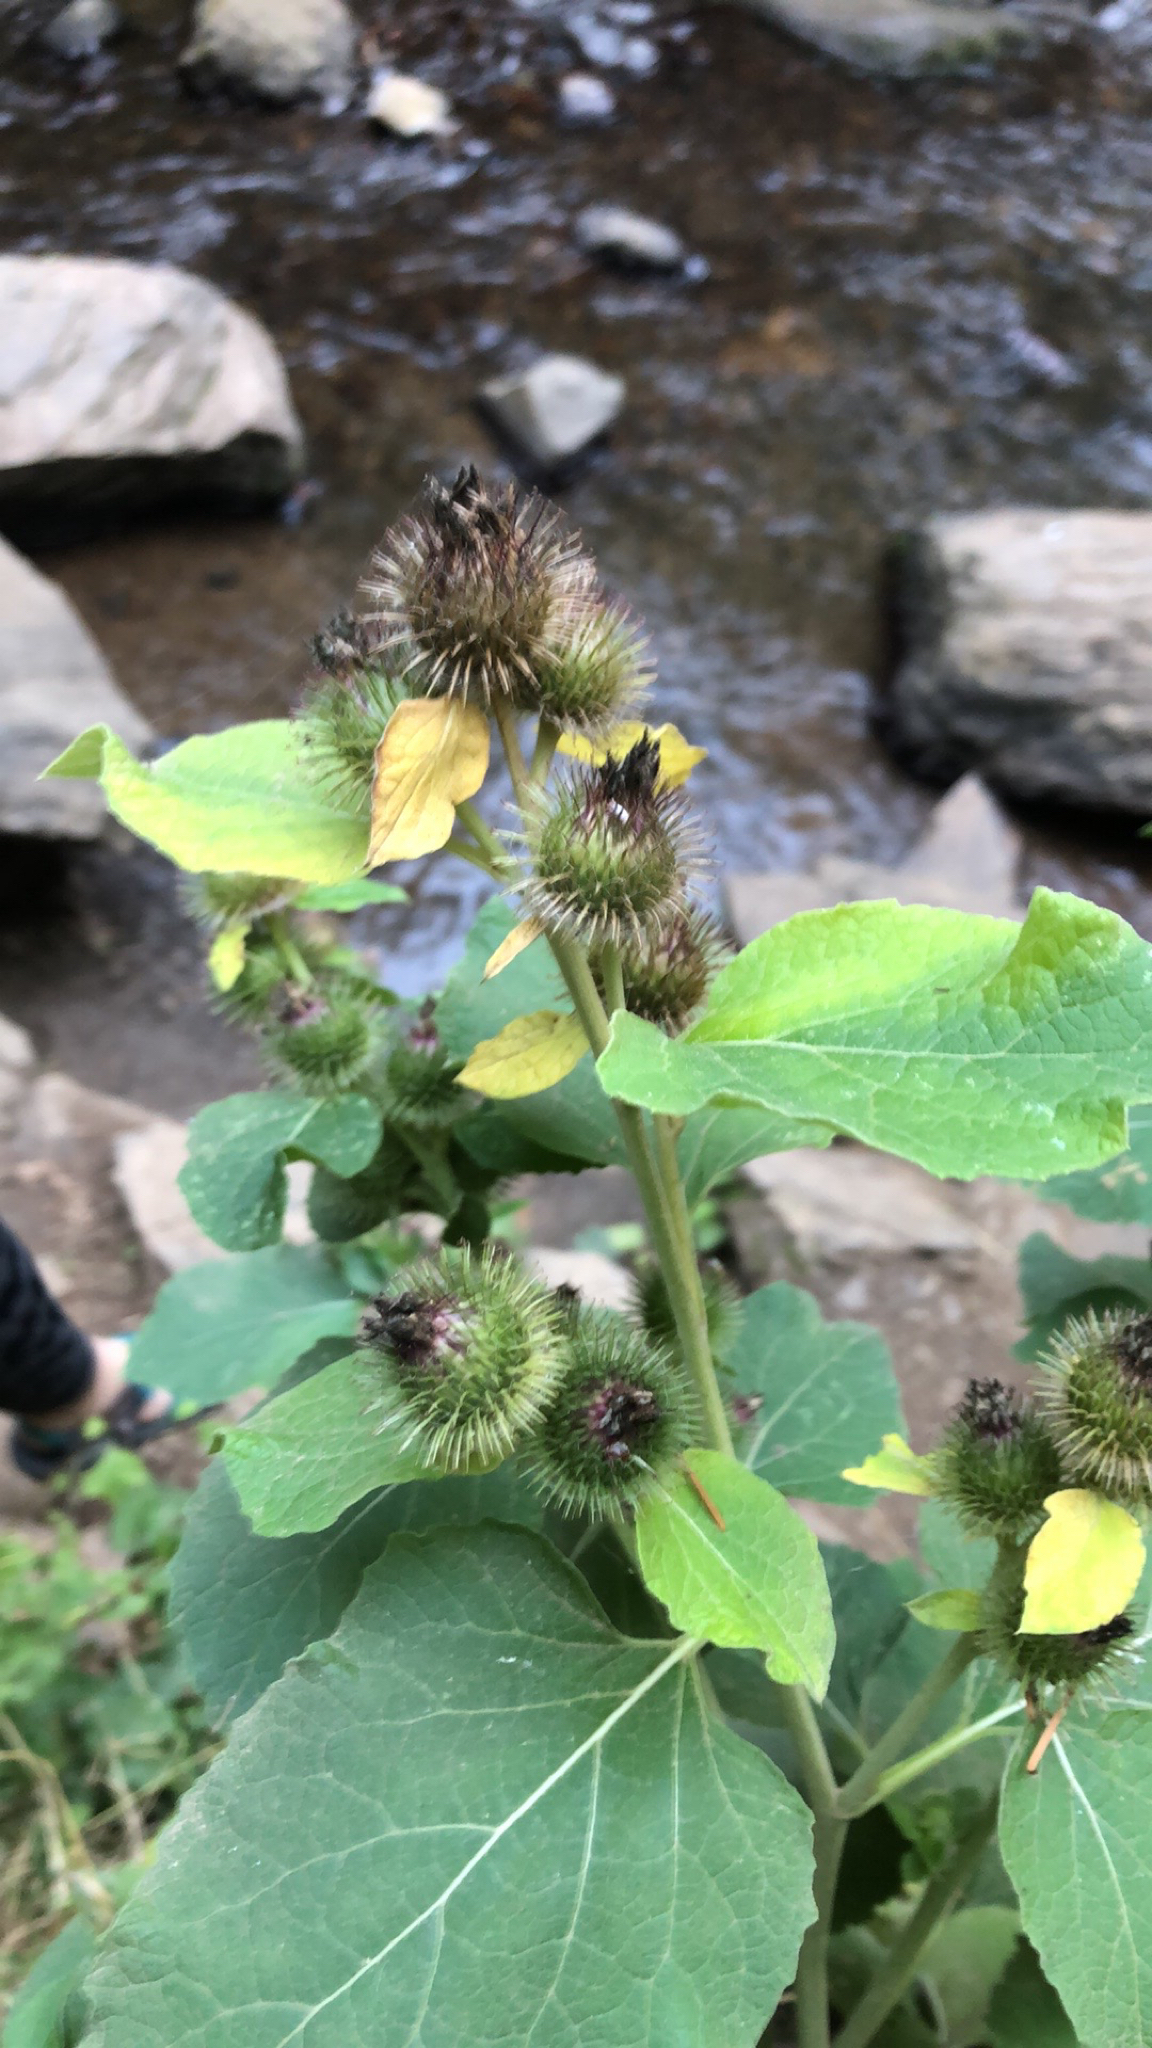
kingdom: Plantae
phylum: Tracheophyta
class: Magnoliopsida
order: Asterales
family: Asteraceae
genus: Arctium
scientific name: Arctium minus
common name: Lesser burdock
